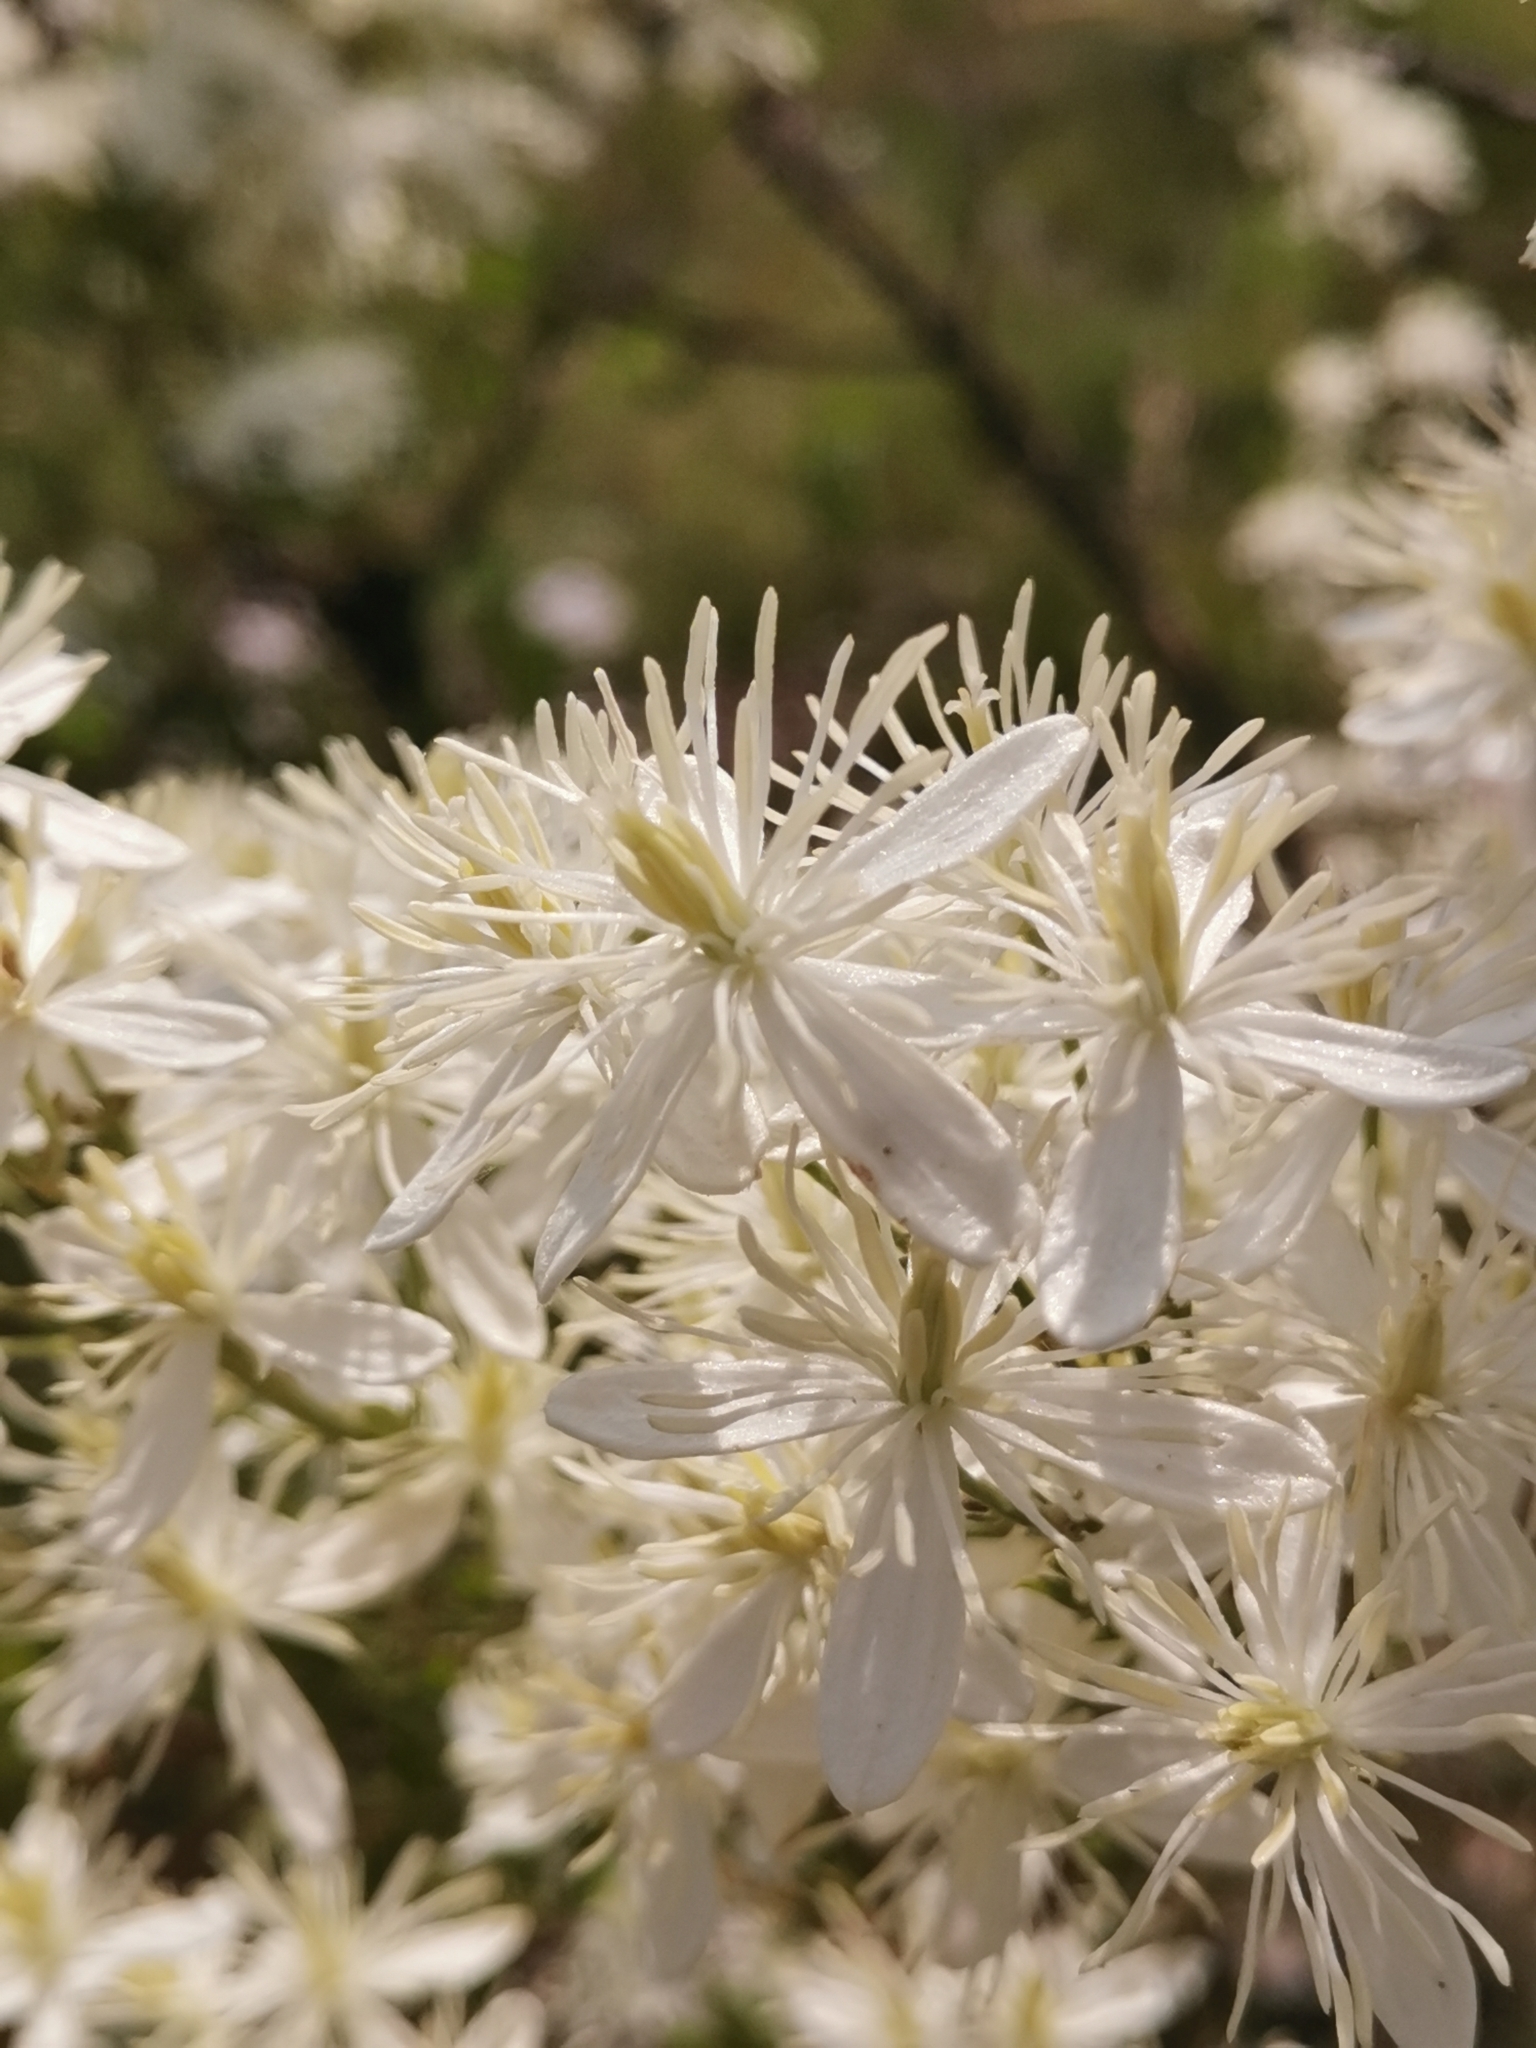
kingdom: Plantae
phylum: Tracheophyta
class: Magnoliopsida
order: Ranunculales
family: Ranunculaceae
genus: Clematis
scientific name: Clematis flammula
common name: Virgin's-bower
